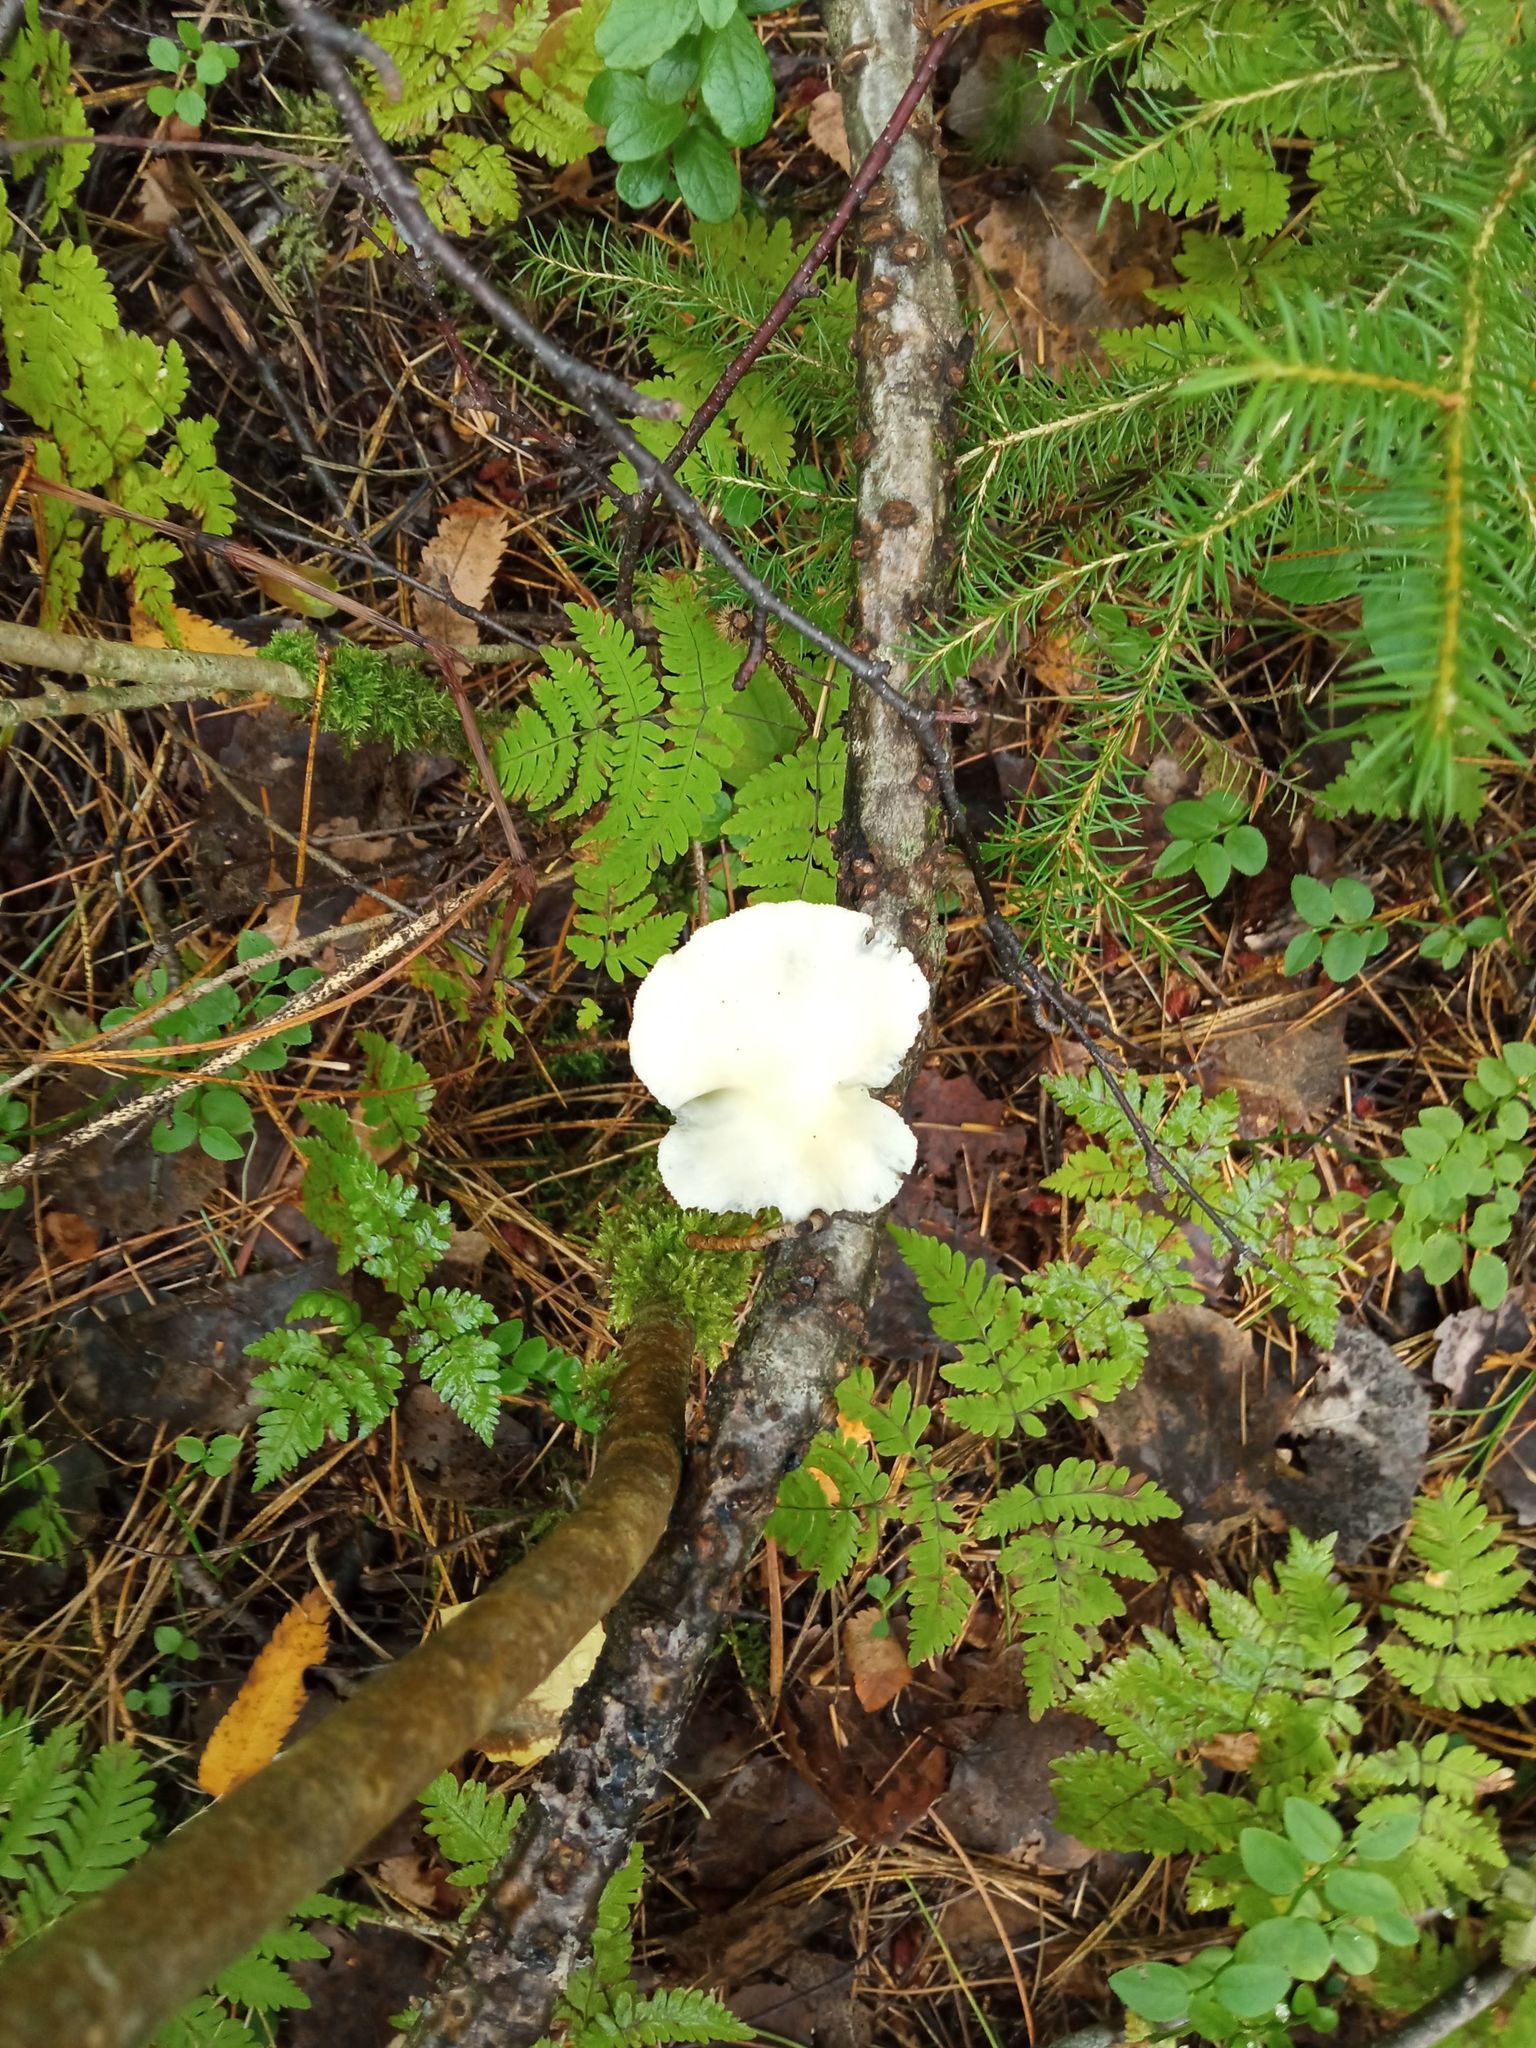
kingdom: Fungi
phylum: Basidiomycota
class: Agaricomycetes
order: Agaricales
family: Pleurotaceae
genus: Pleurotus
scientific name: Pleurotus pulmonarius
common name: Pale oyster
